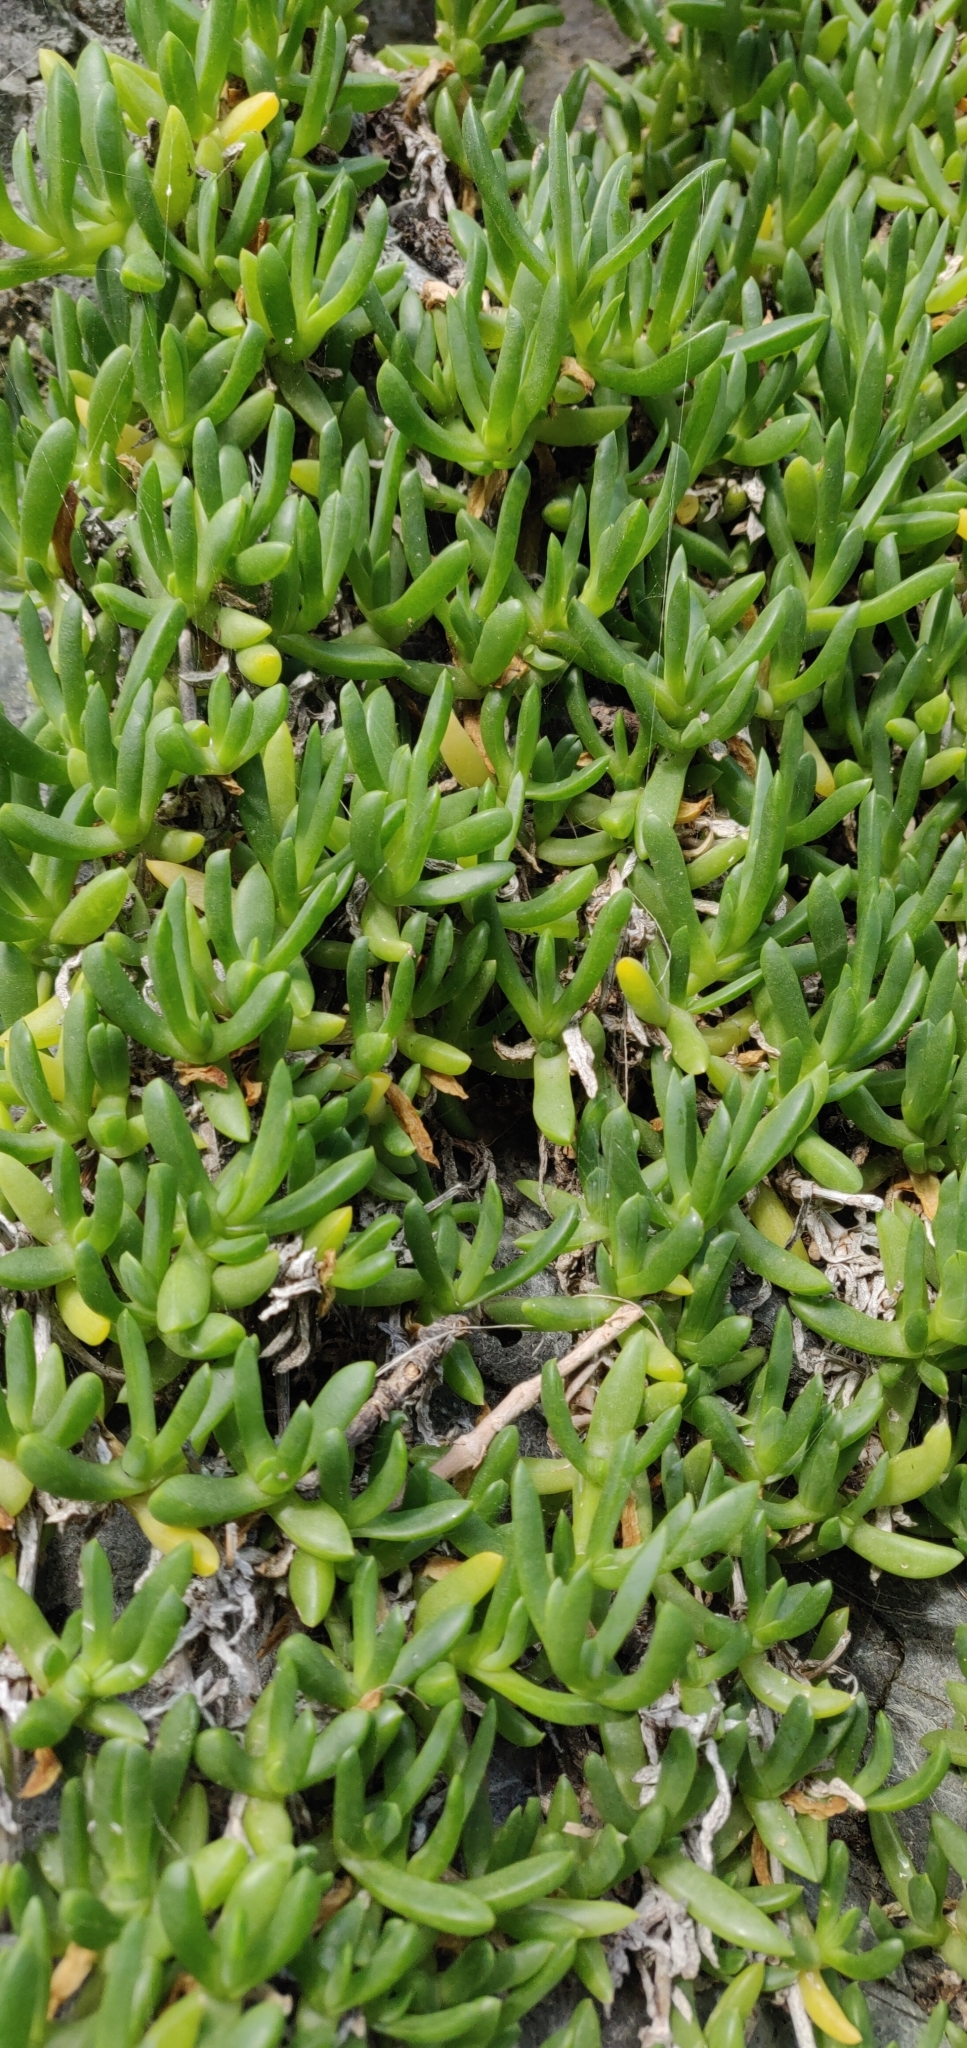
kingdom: Plantae
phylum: Tracheophyta
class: Magnoliopsida
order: Caryophyllales
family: Aizoaceae
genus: Disphyma
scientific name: Disphyma australe
